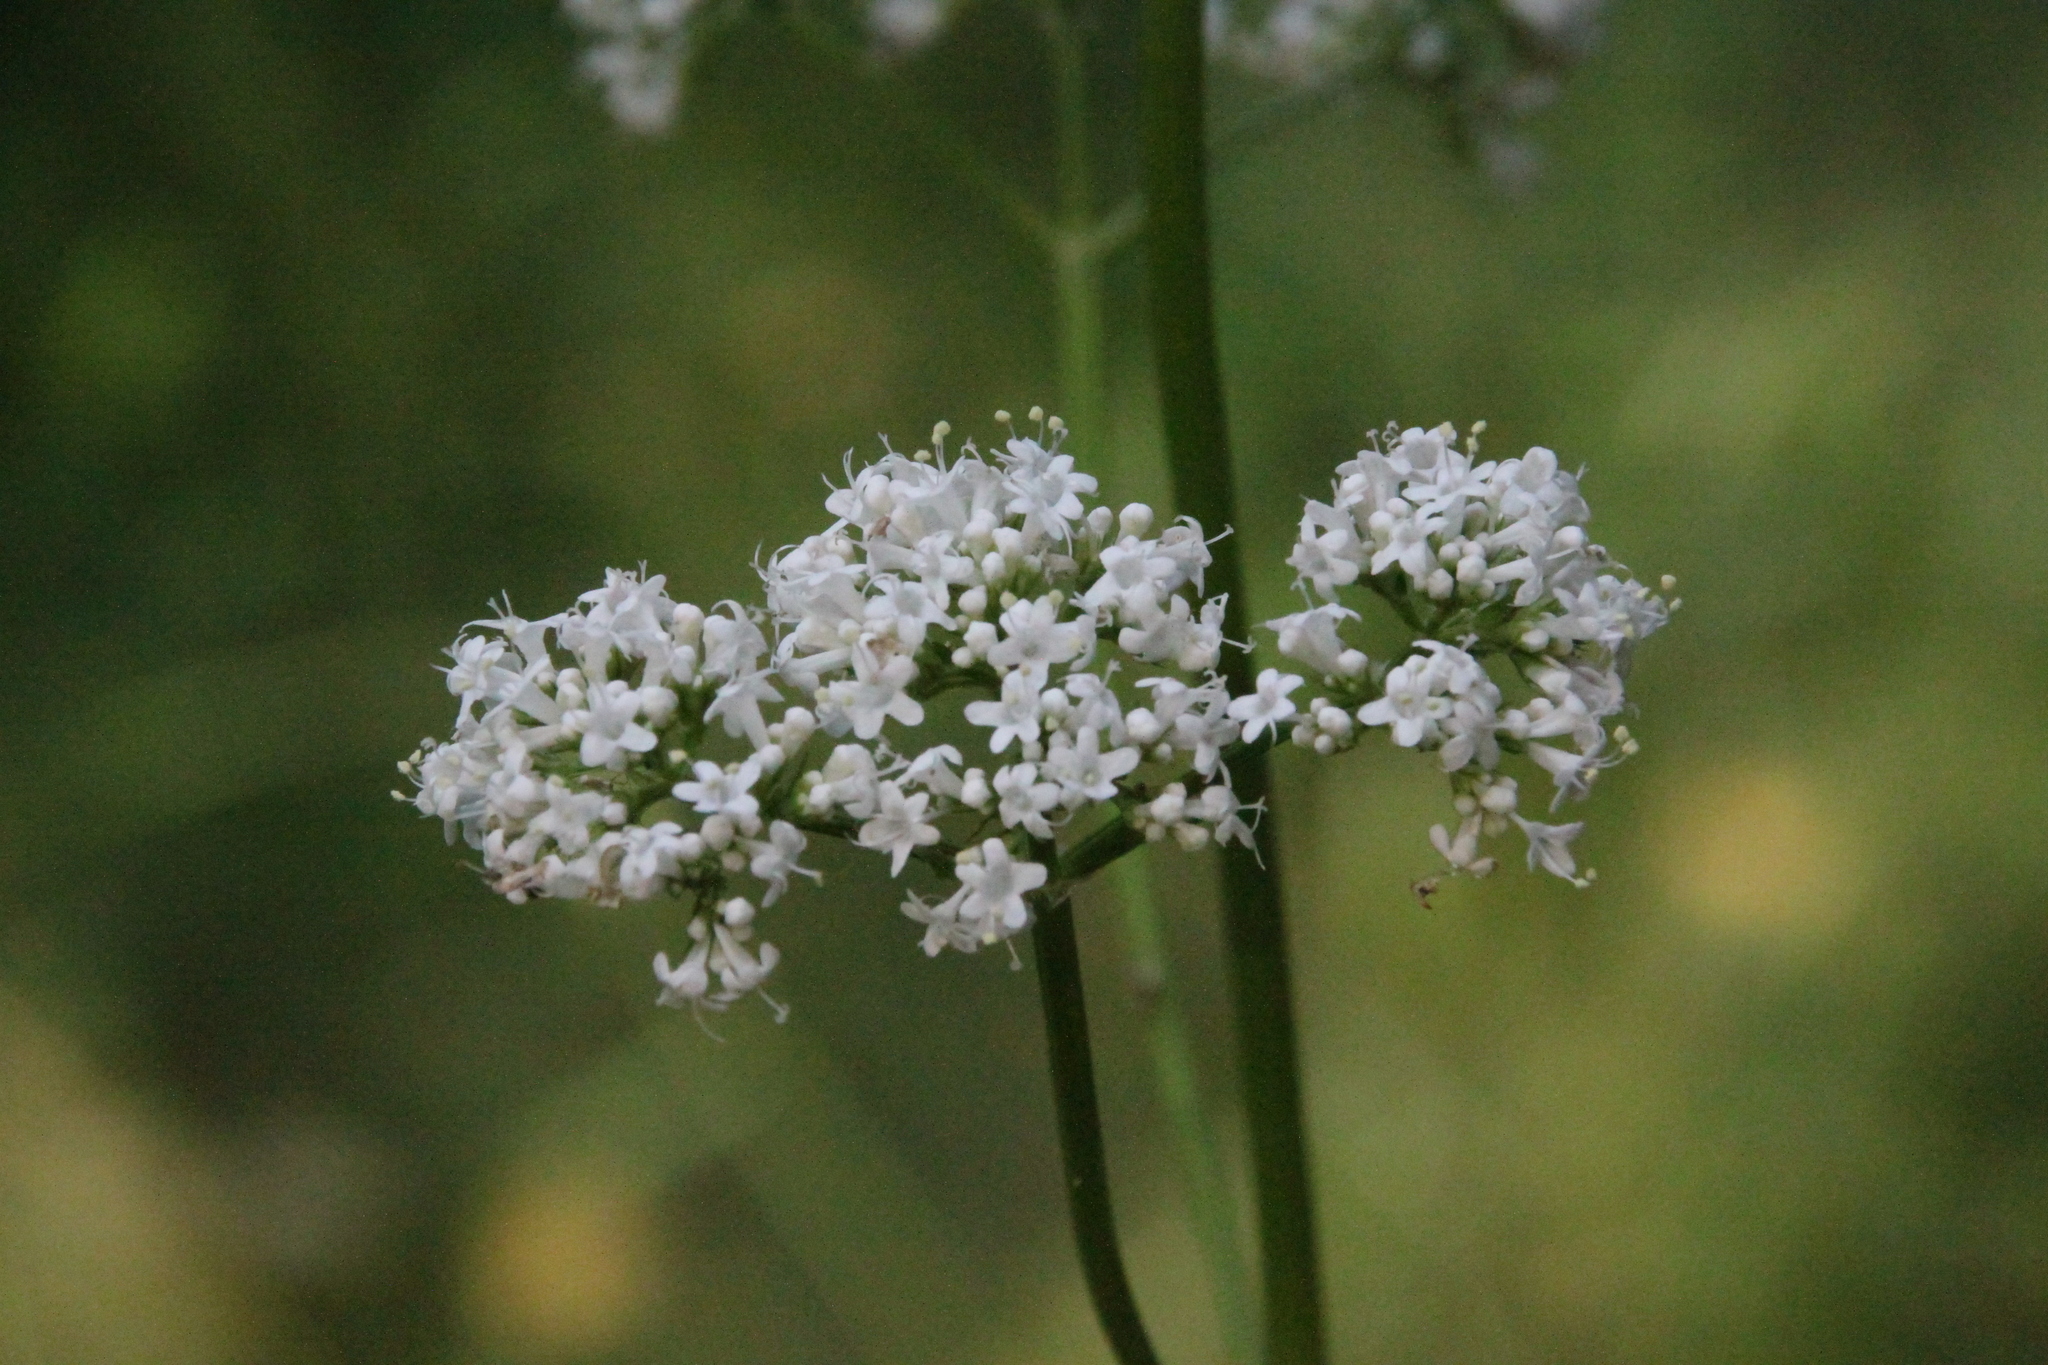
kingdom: Plantae
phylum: Tracheophyta
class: Magnoliopsida
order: Dipsacales
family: Caprifoliaceae
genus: Valeriana
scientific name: Valeriana officinalis
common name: Common valerian
